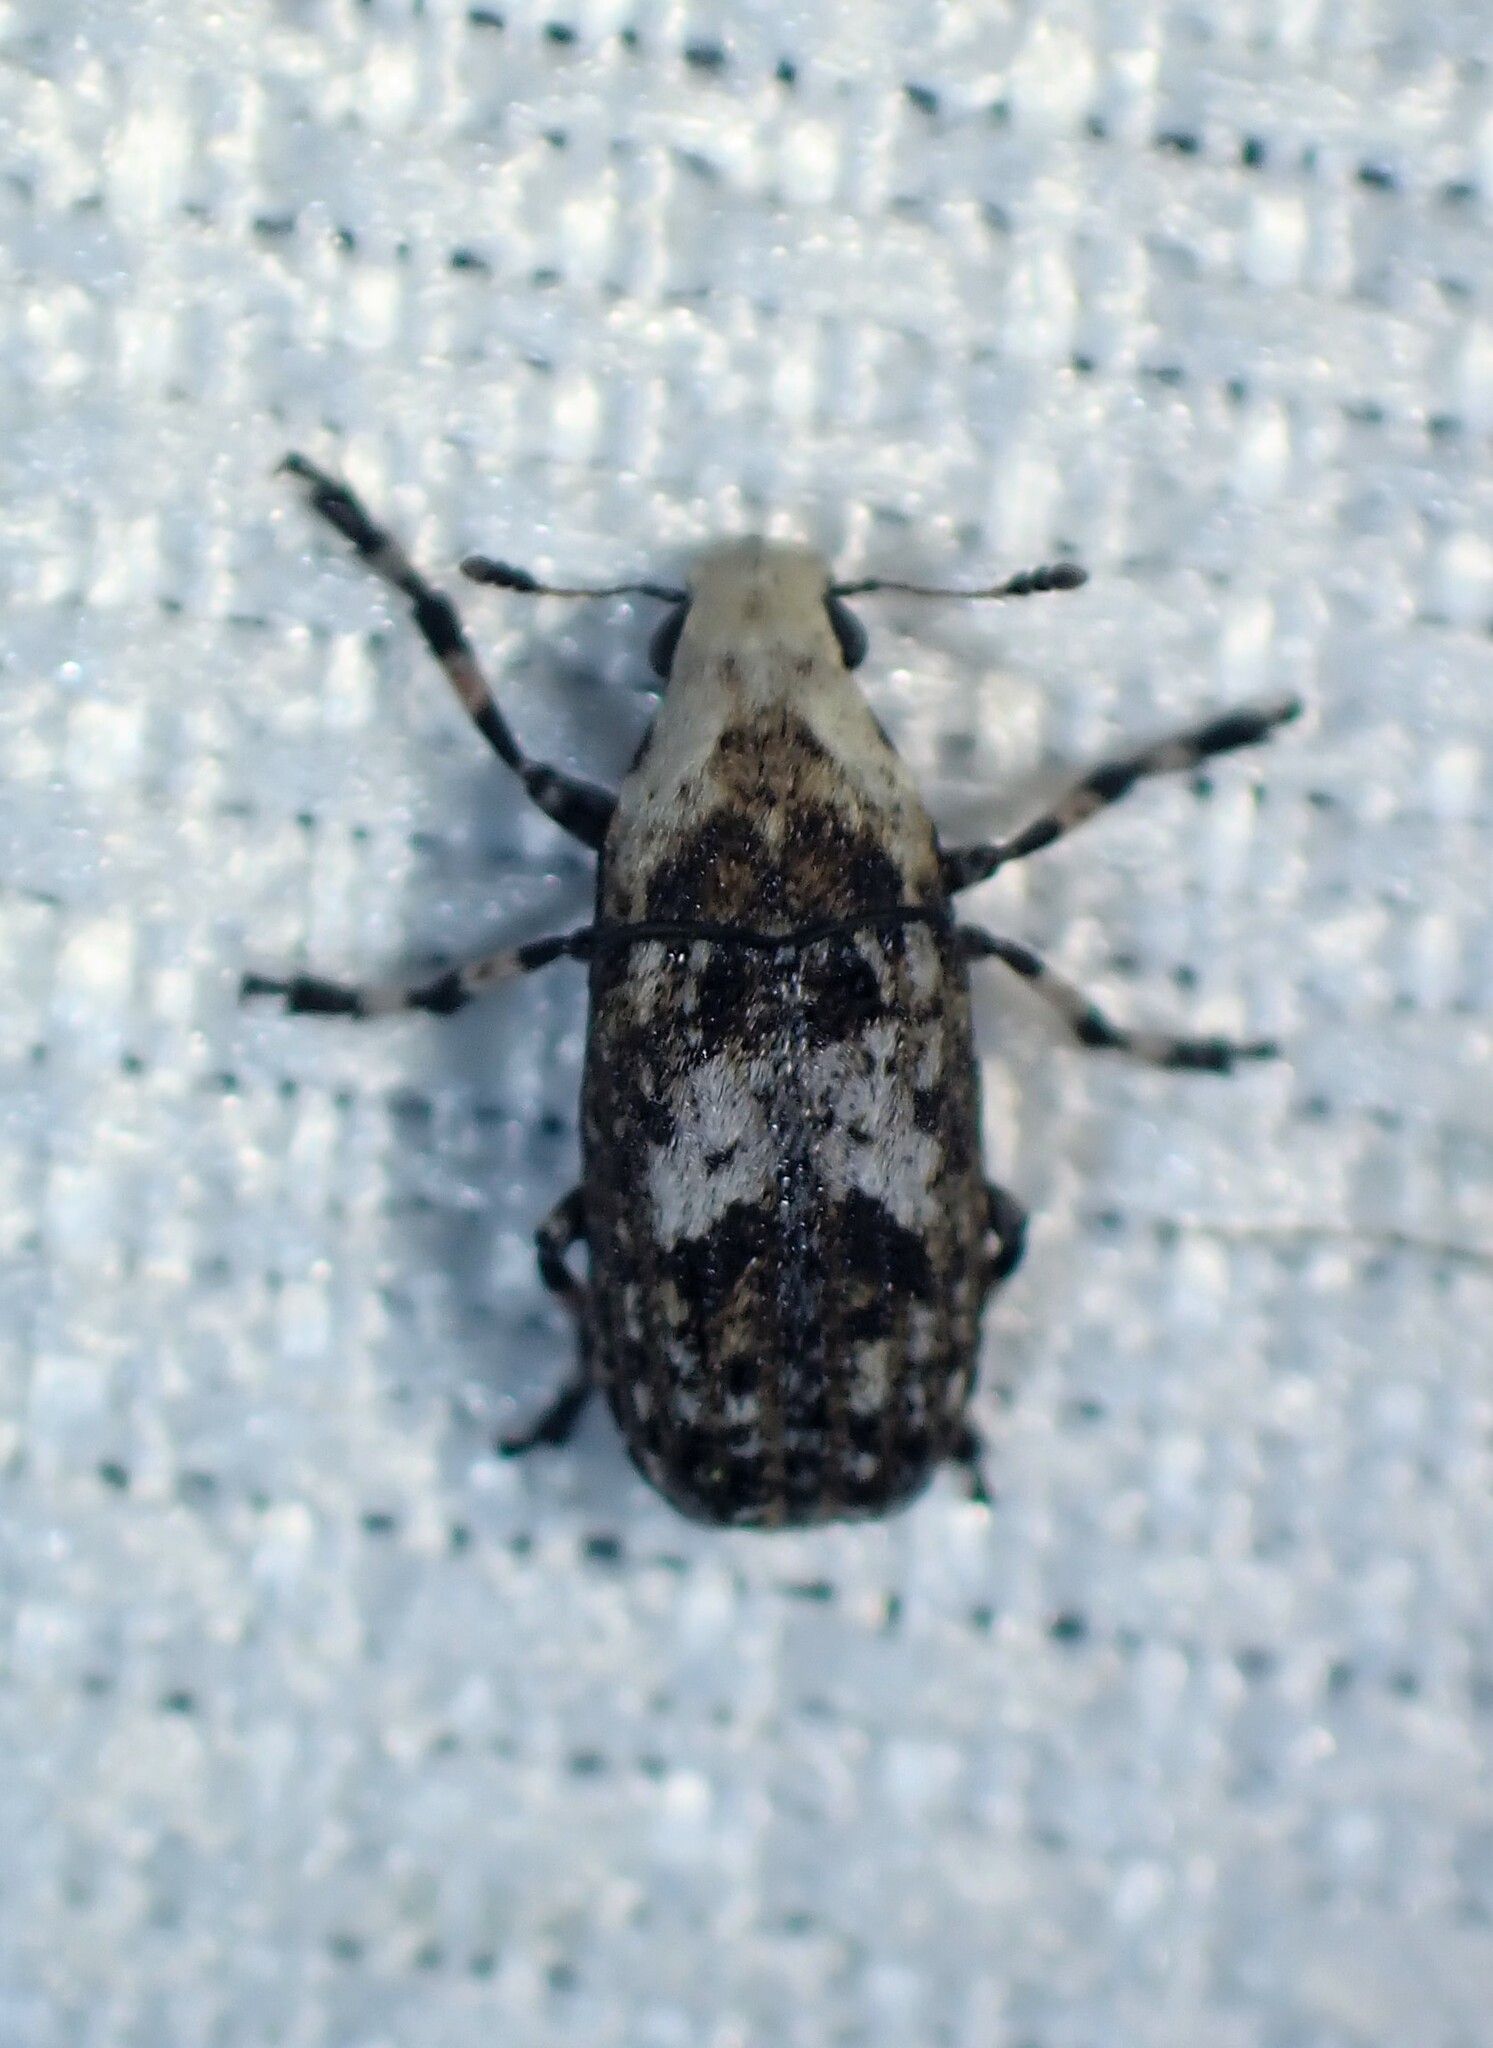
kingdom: Animalia
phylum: Arthropoda
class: Insecta
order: Coleoptera
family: Anthribidae
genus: Euparius
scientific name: Euparius marmoreus
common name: Marbled fungus weevil
